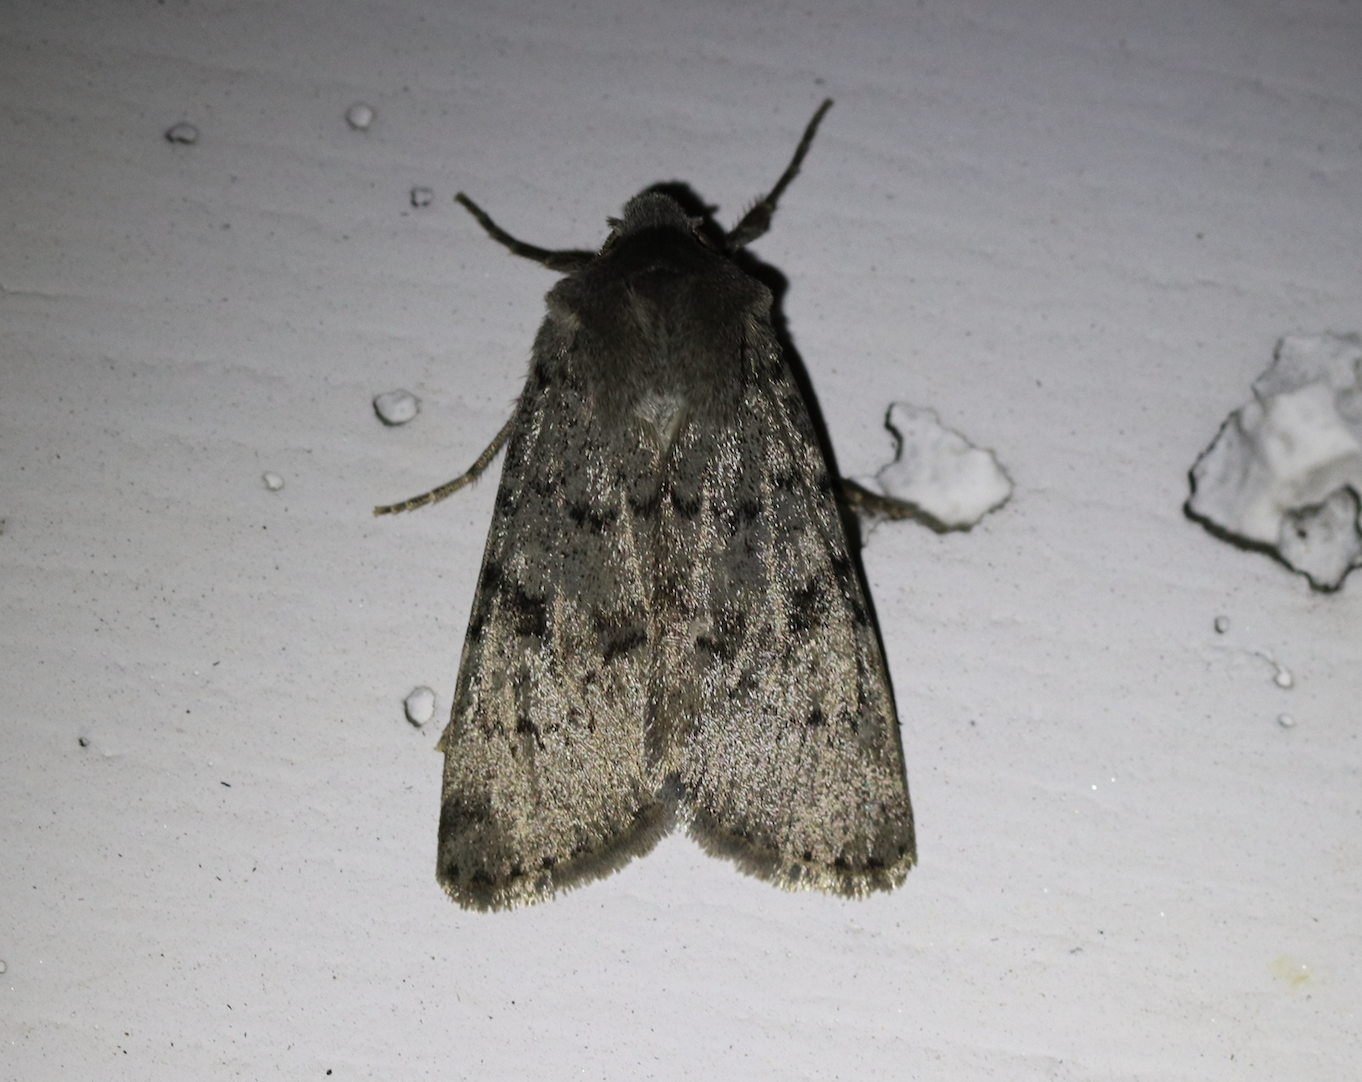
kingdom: Animalia
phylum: Arthropoda
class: Insecta
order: Lepidoptera
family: Noctuidae
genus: Epipsilia
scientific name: Epipsilia grisescens
